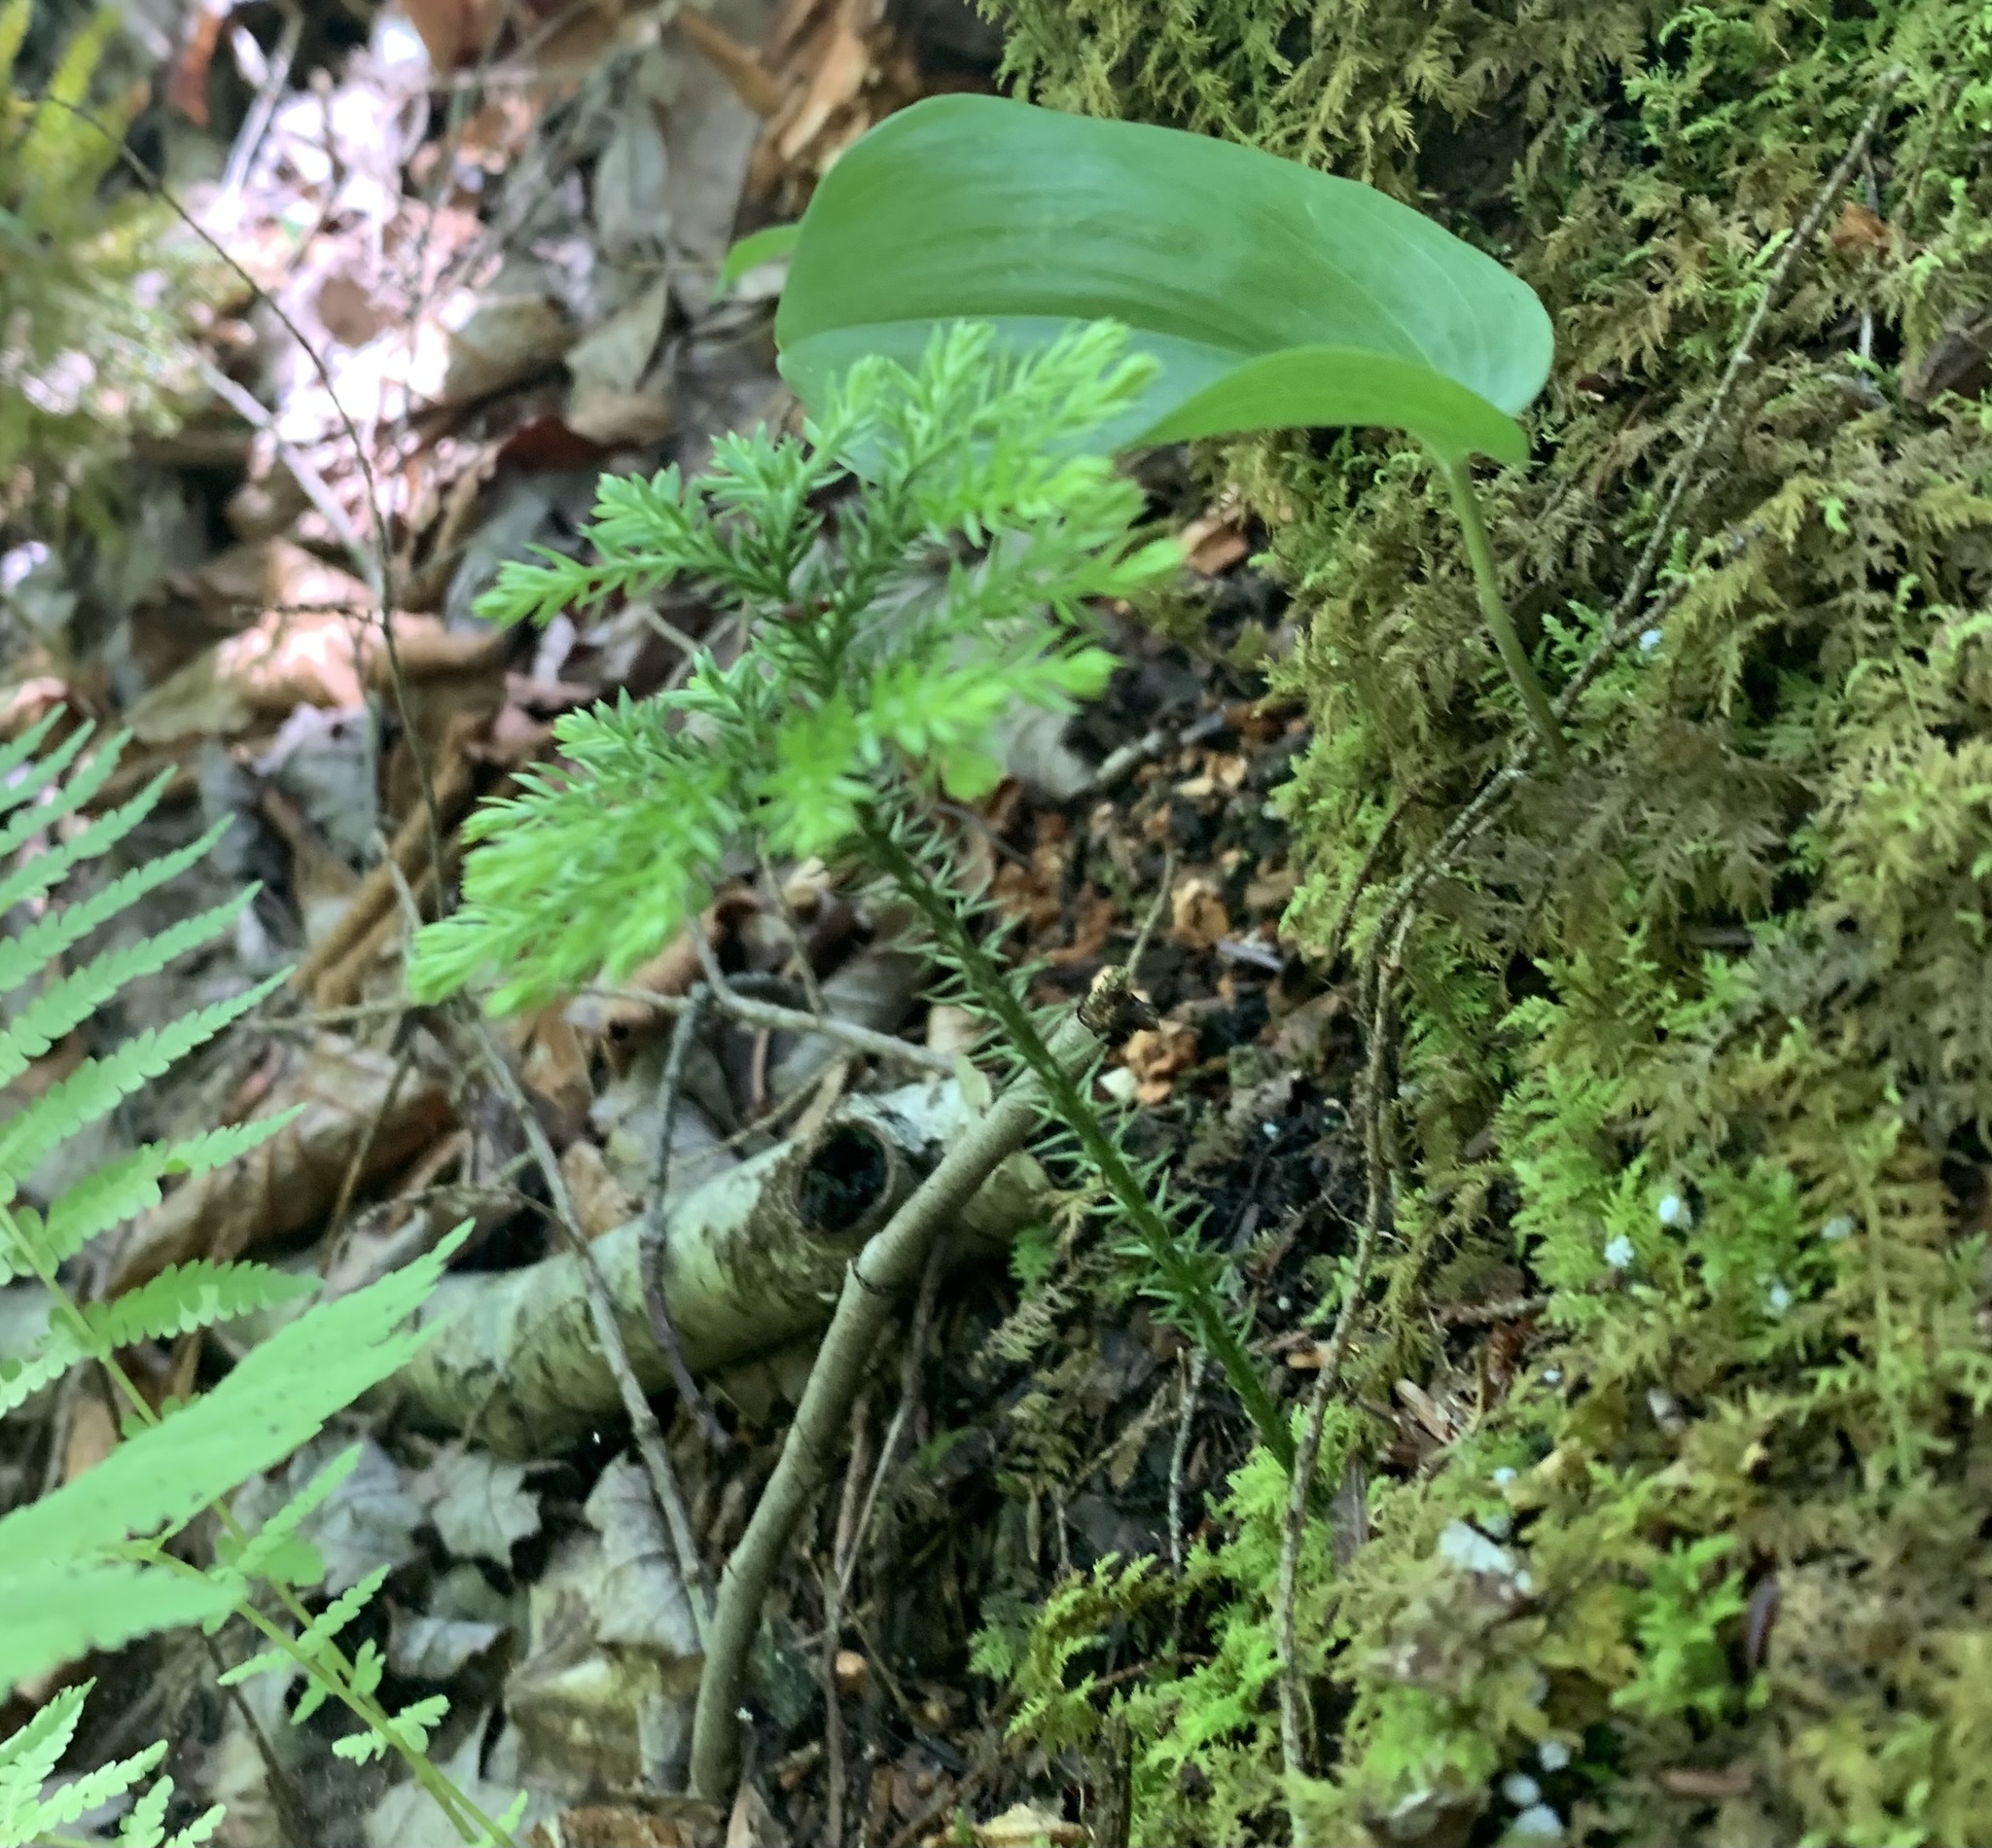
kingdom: Plantae
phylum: Tracheophyta
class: Lycopodiopsida
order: Lycopodiales
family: Lycopodiaceae
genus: Dendrolycopodium
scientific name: Dendrolycopodium dendroideum
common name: Northern tree-clubmoss
